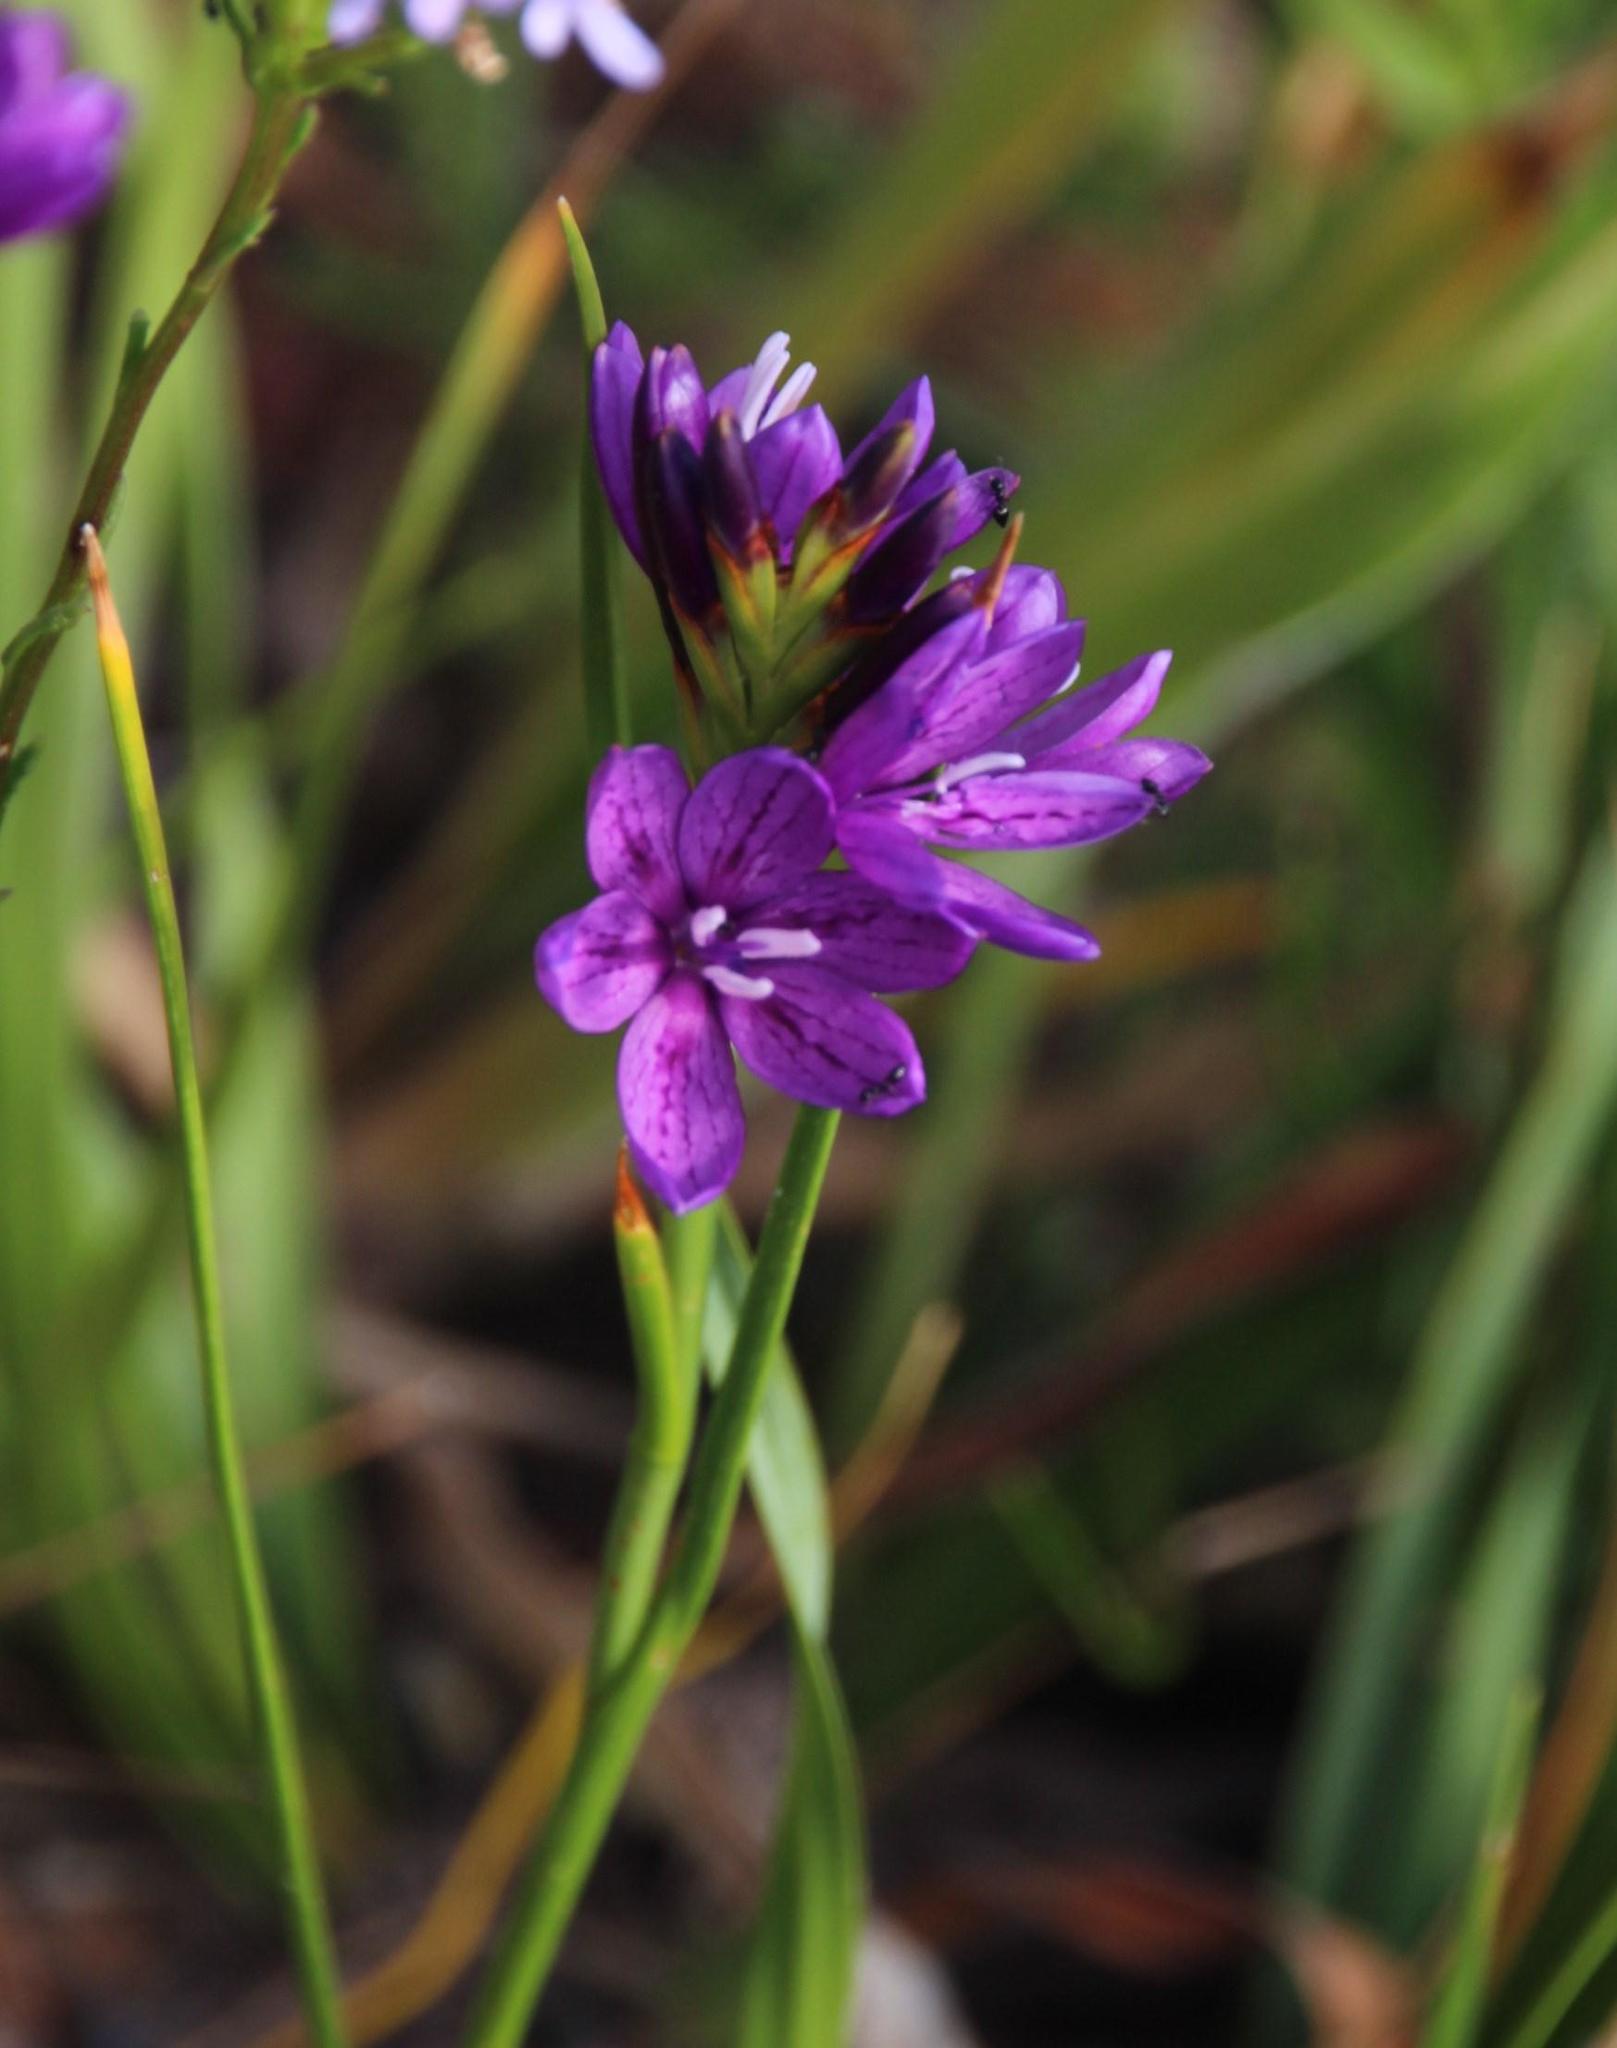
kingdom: Plantae
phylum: Tracheophyta
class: Liliopsida
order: Asparagales
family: Iridaceae
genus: Thereianthus
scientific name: Thereianthus bracteolatus
